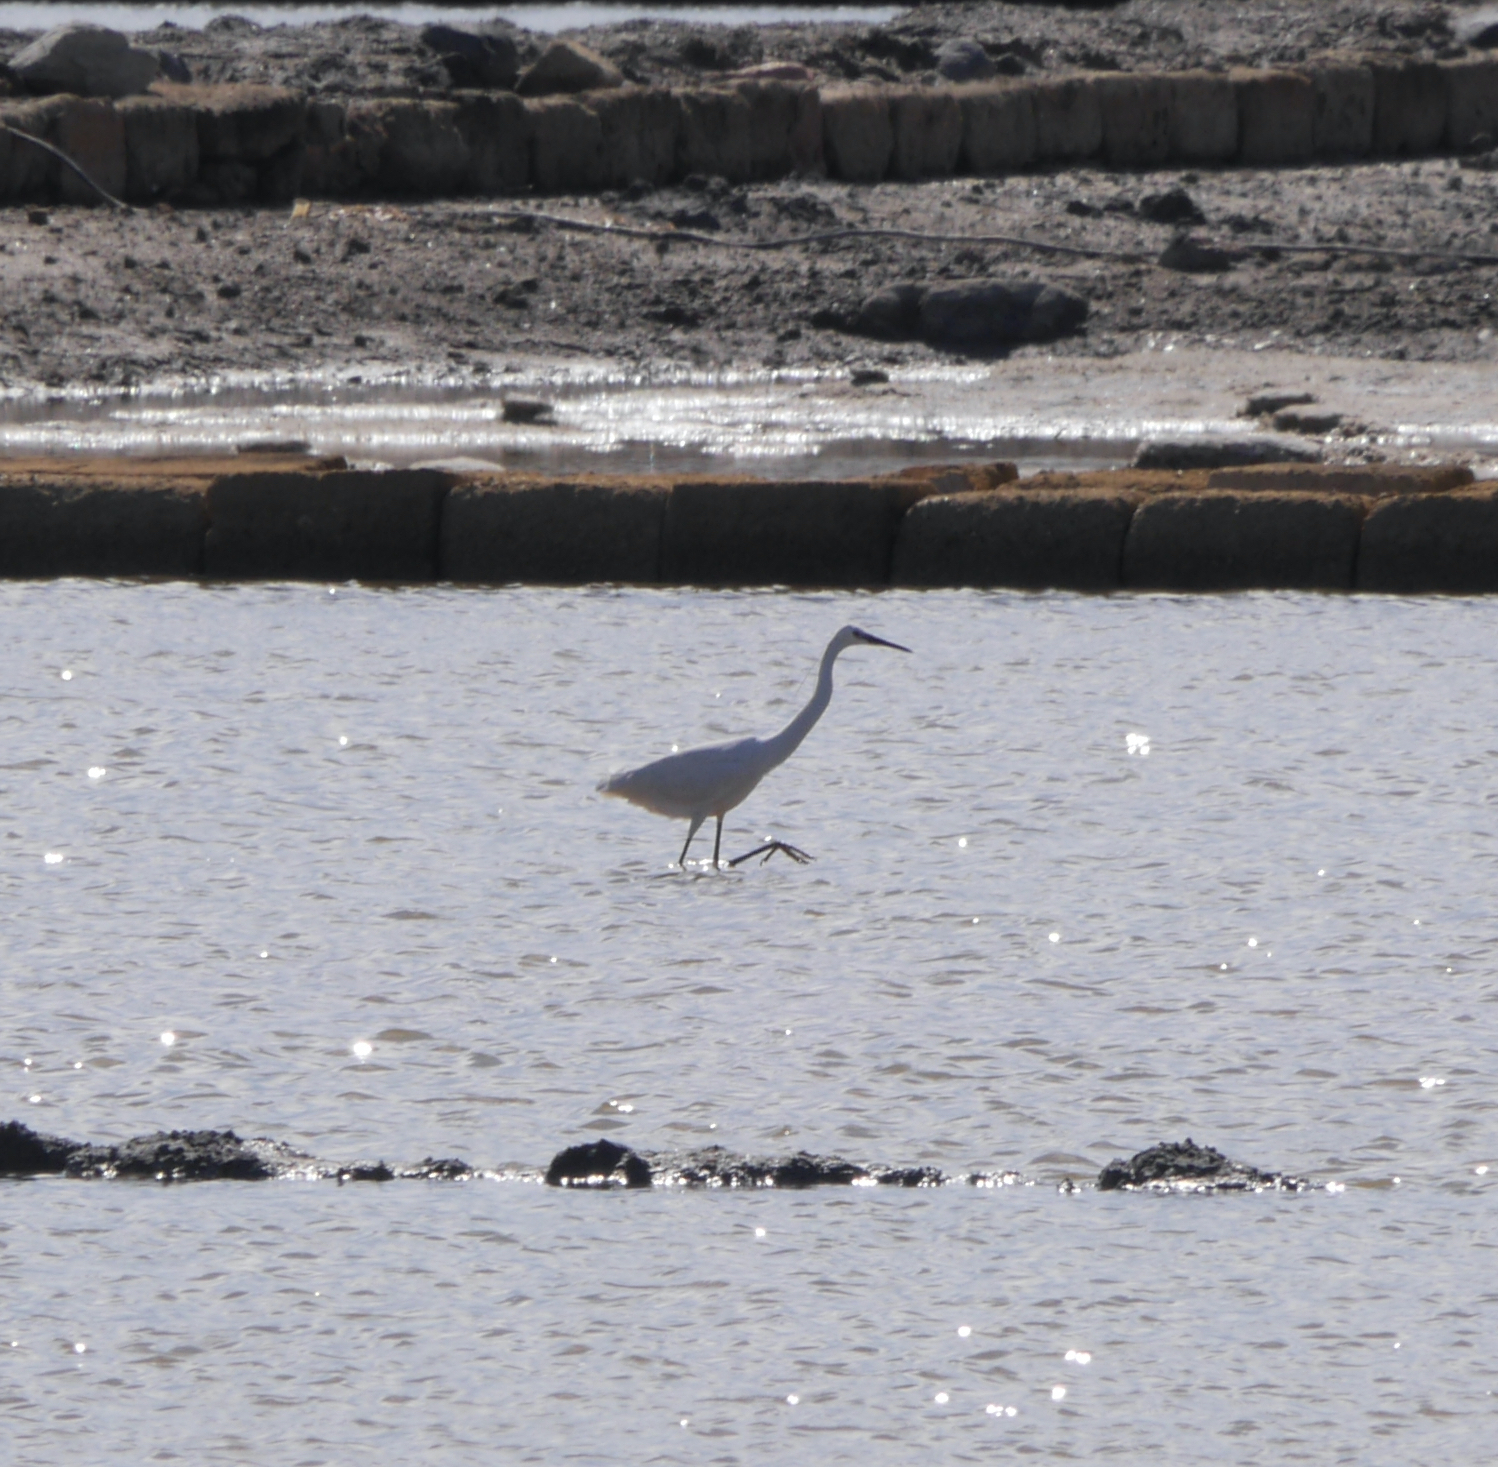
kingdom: Animalia
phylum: Chordata
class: Aves
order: Pelecaniformes
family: Ardeidae
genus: Egretta
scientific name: Egretta garzetta
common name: Little egret
